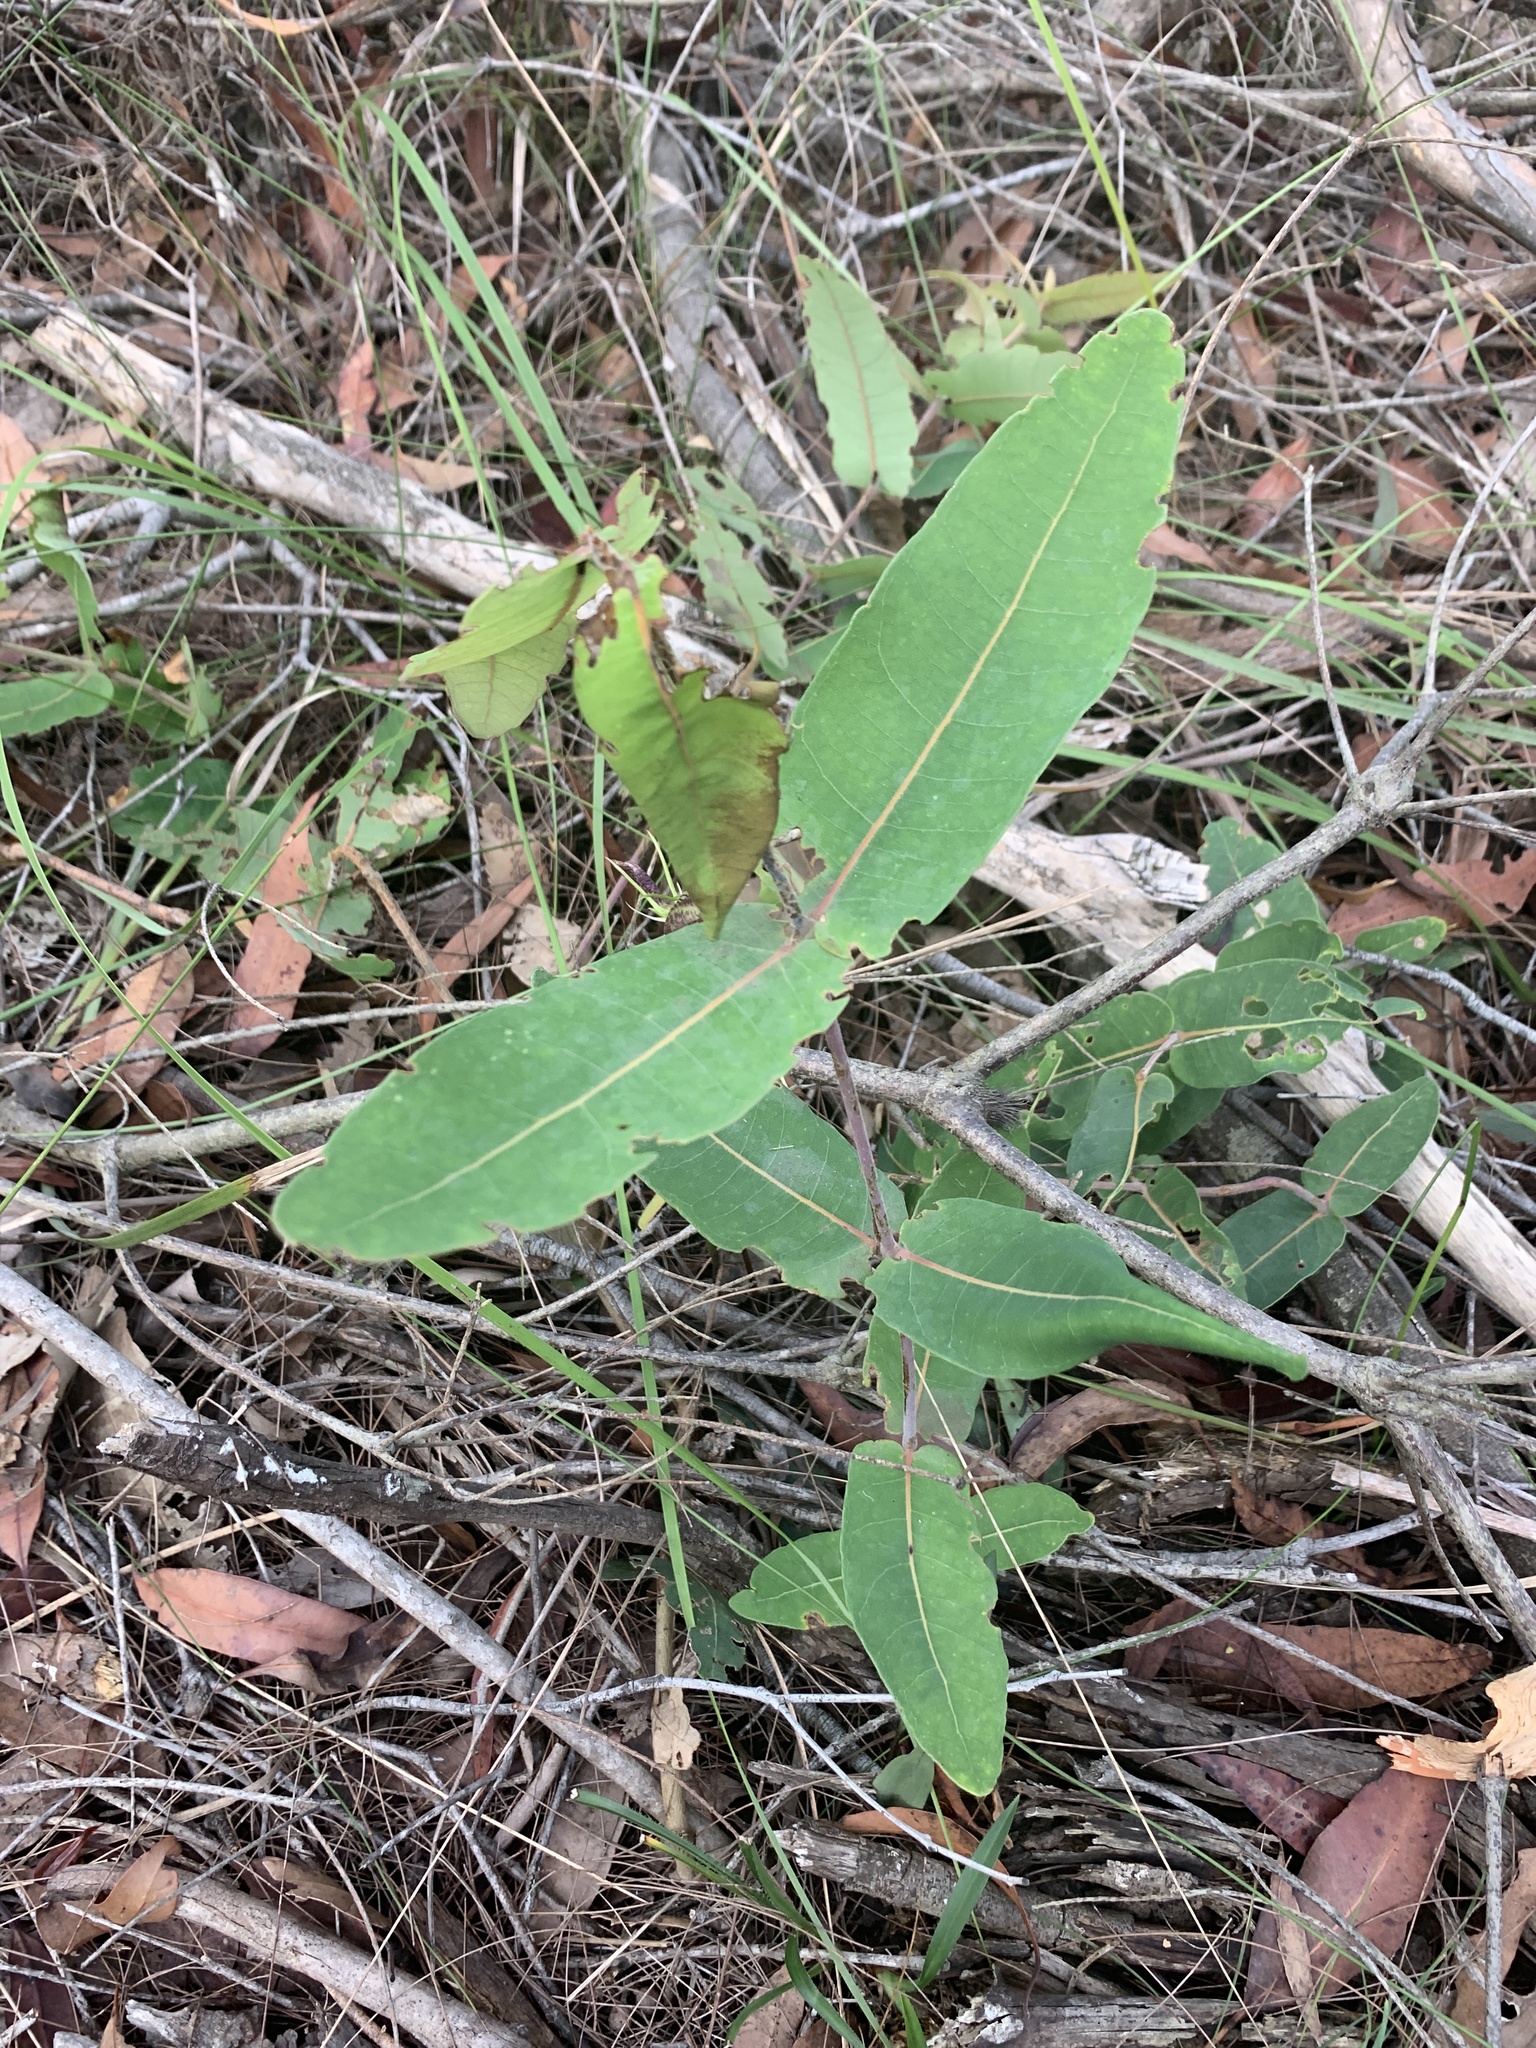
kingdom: Plantae
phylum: Tracheophyta
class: Magnoliopsida
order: Myrtales
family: Myrtaceae
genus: Angophora
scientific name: Angophora hispida
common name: Dwarf-apple
